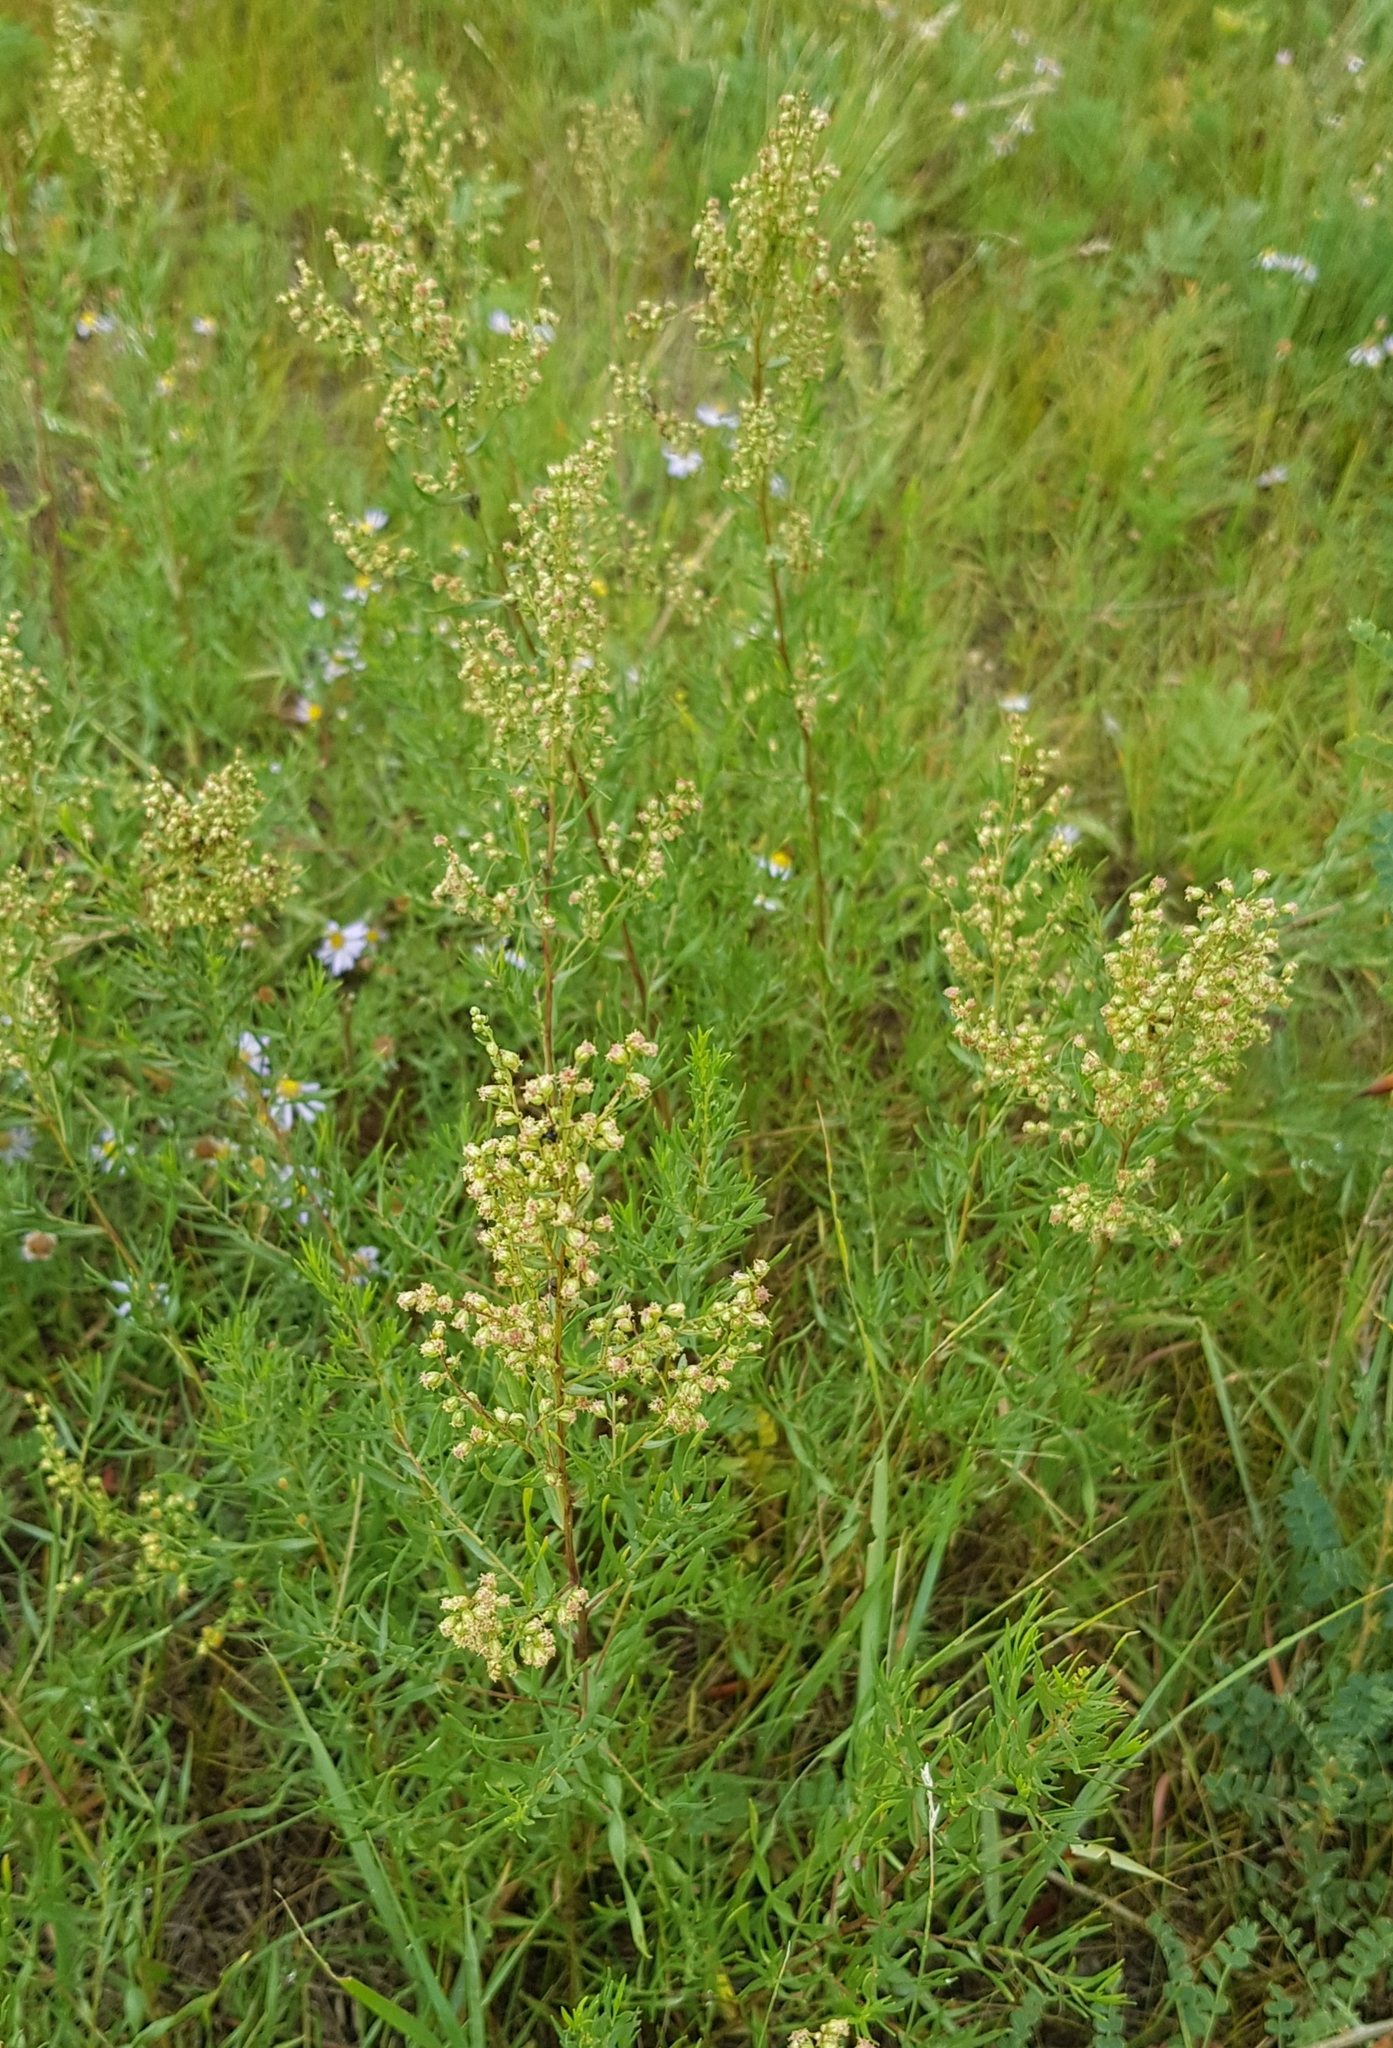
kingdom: Plantae
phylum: Tracheophyta
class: Magnoliopsida
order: Asterales
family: Asteraceae
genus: Artemisia
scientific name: Artemisia dracunculus
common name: Tarragon
